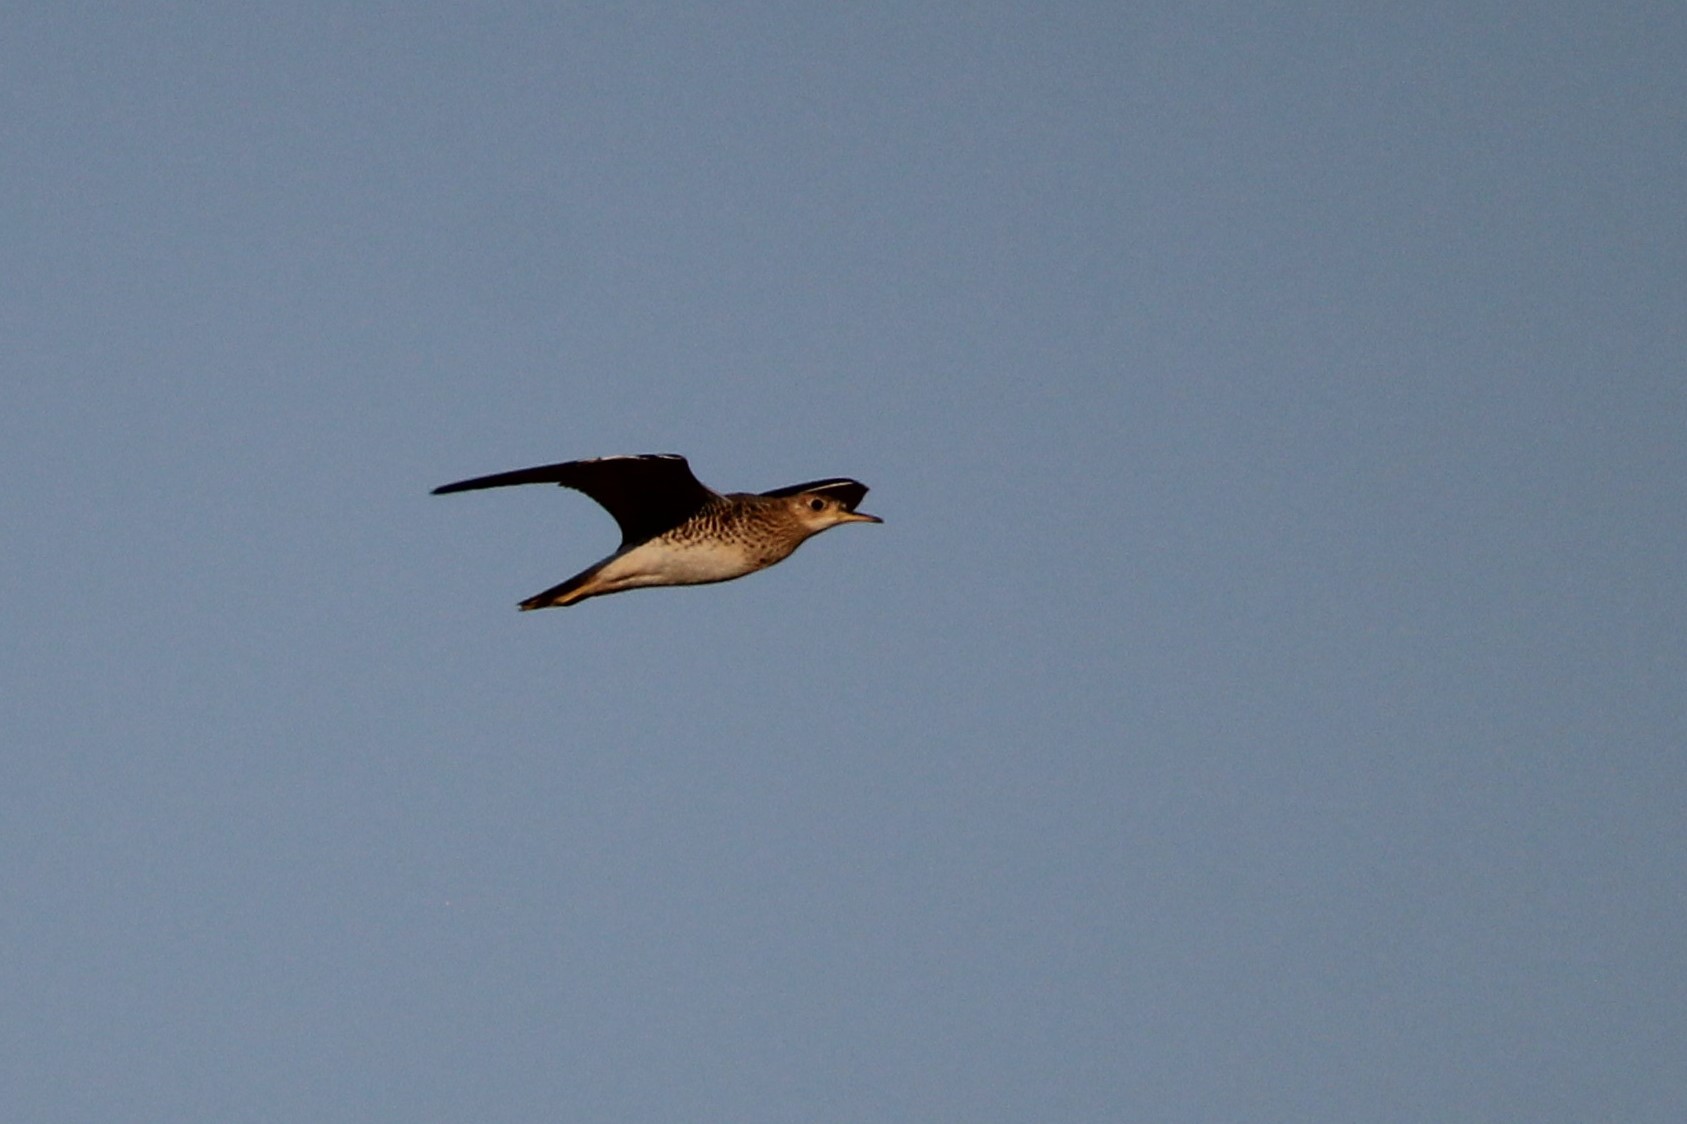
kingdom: Animalia
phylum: Chordata
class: Aves
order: Charadriiformes
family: Scolopacidae
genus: Bartramia
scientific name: Bartramia longicauda
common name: Upland sandpiper
